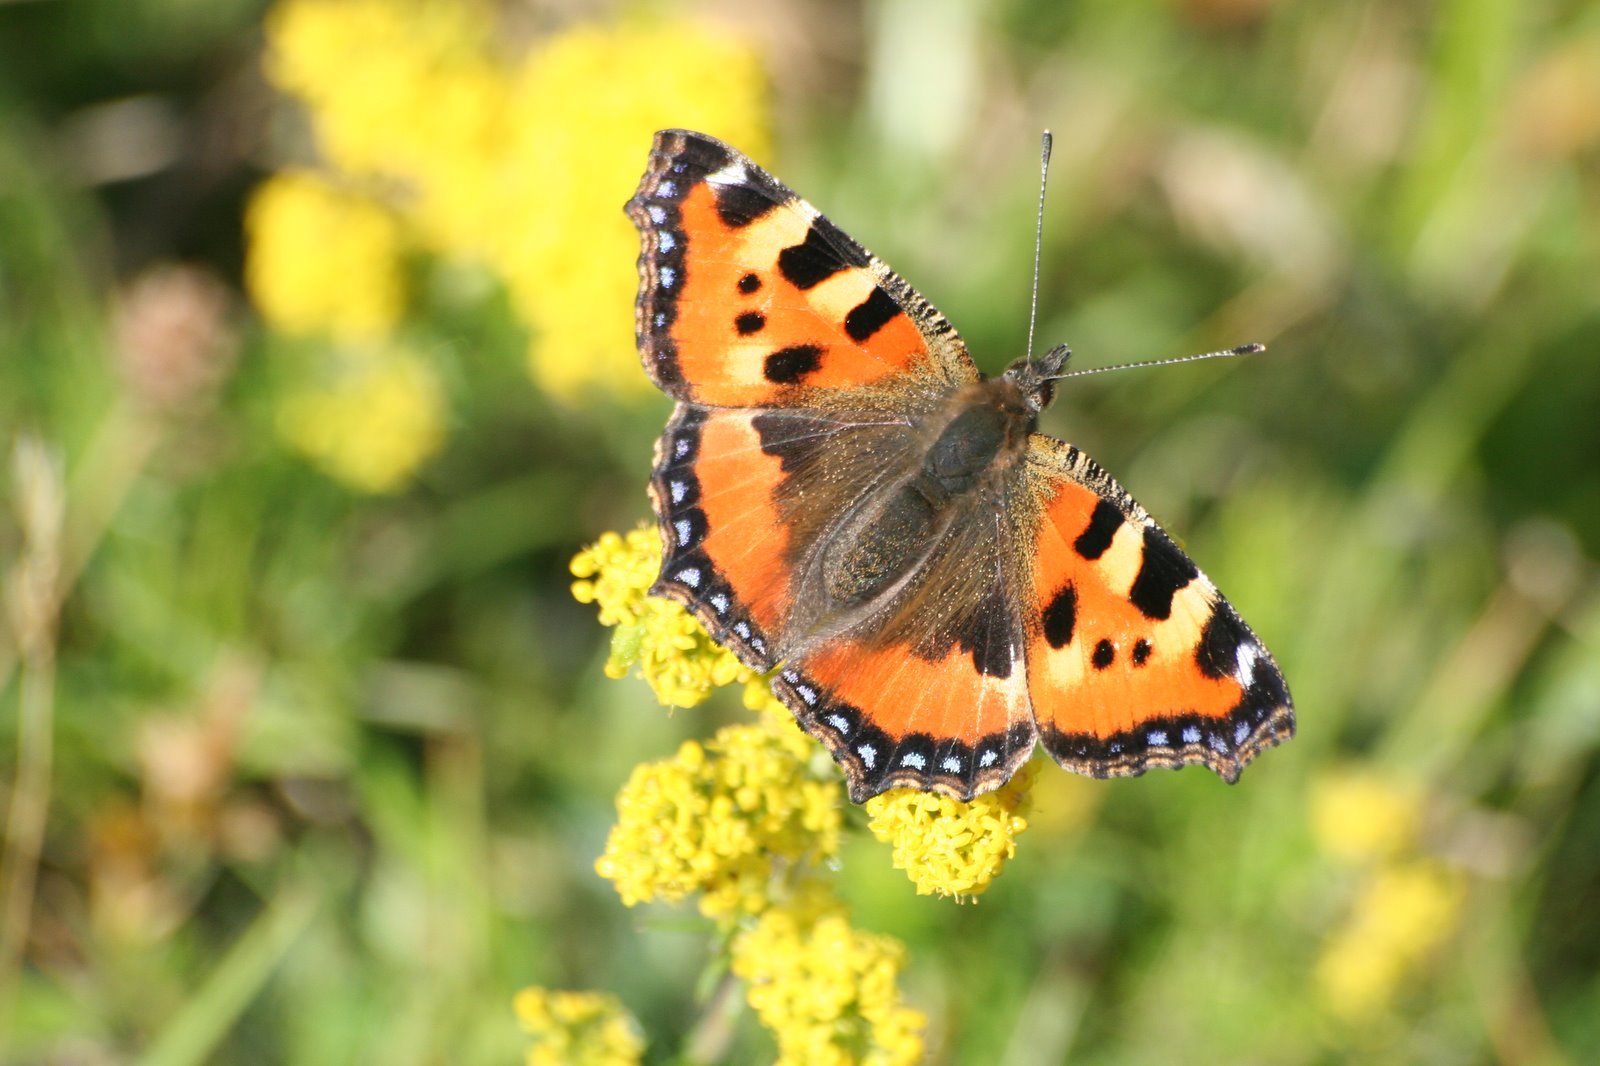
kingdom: Animalia
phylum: Arthropoda
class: Insecta
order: Lepidoptera
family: Nymphalidae
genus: Aglais
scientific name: Aglais urticae
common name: Small tortoiseshell
